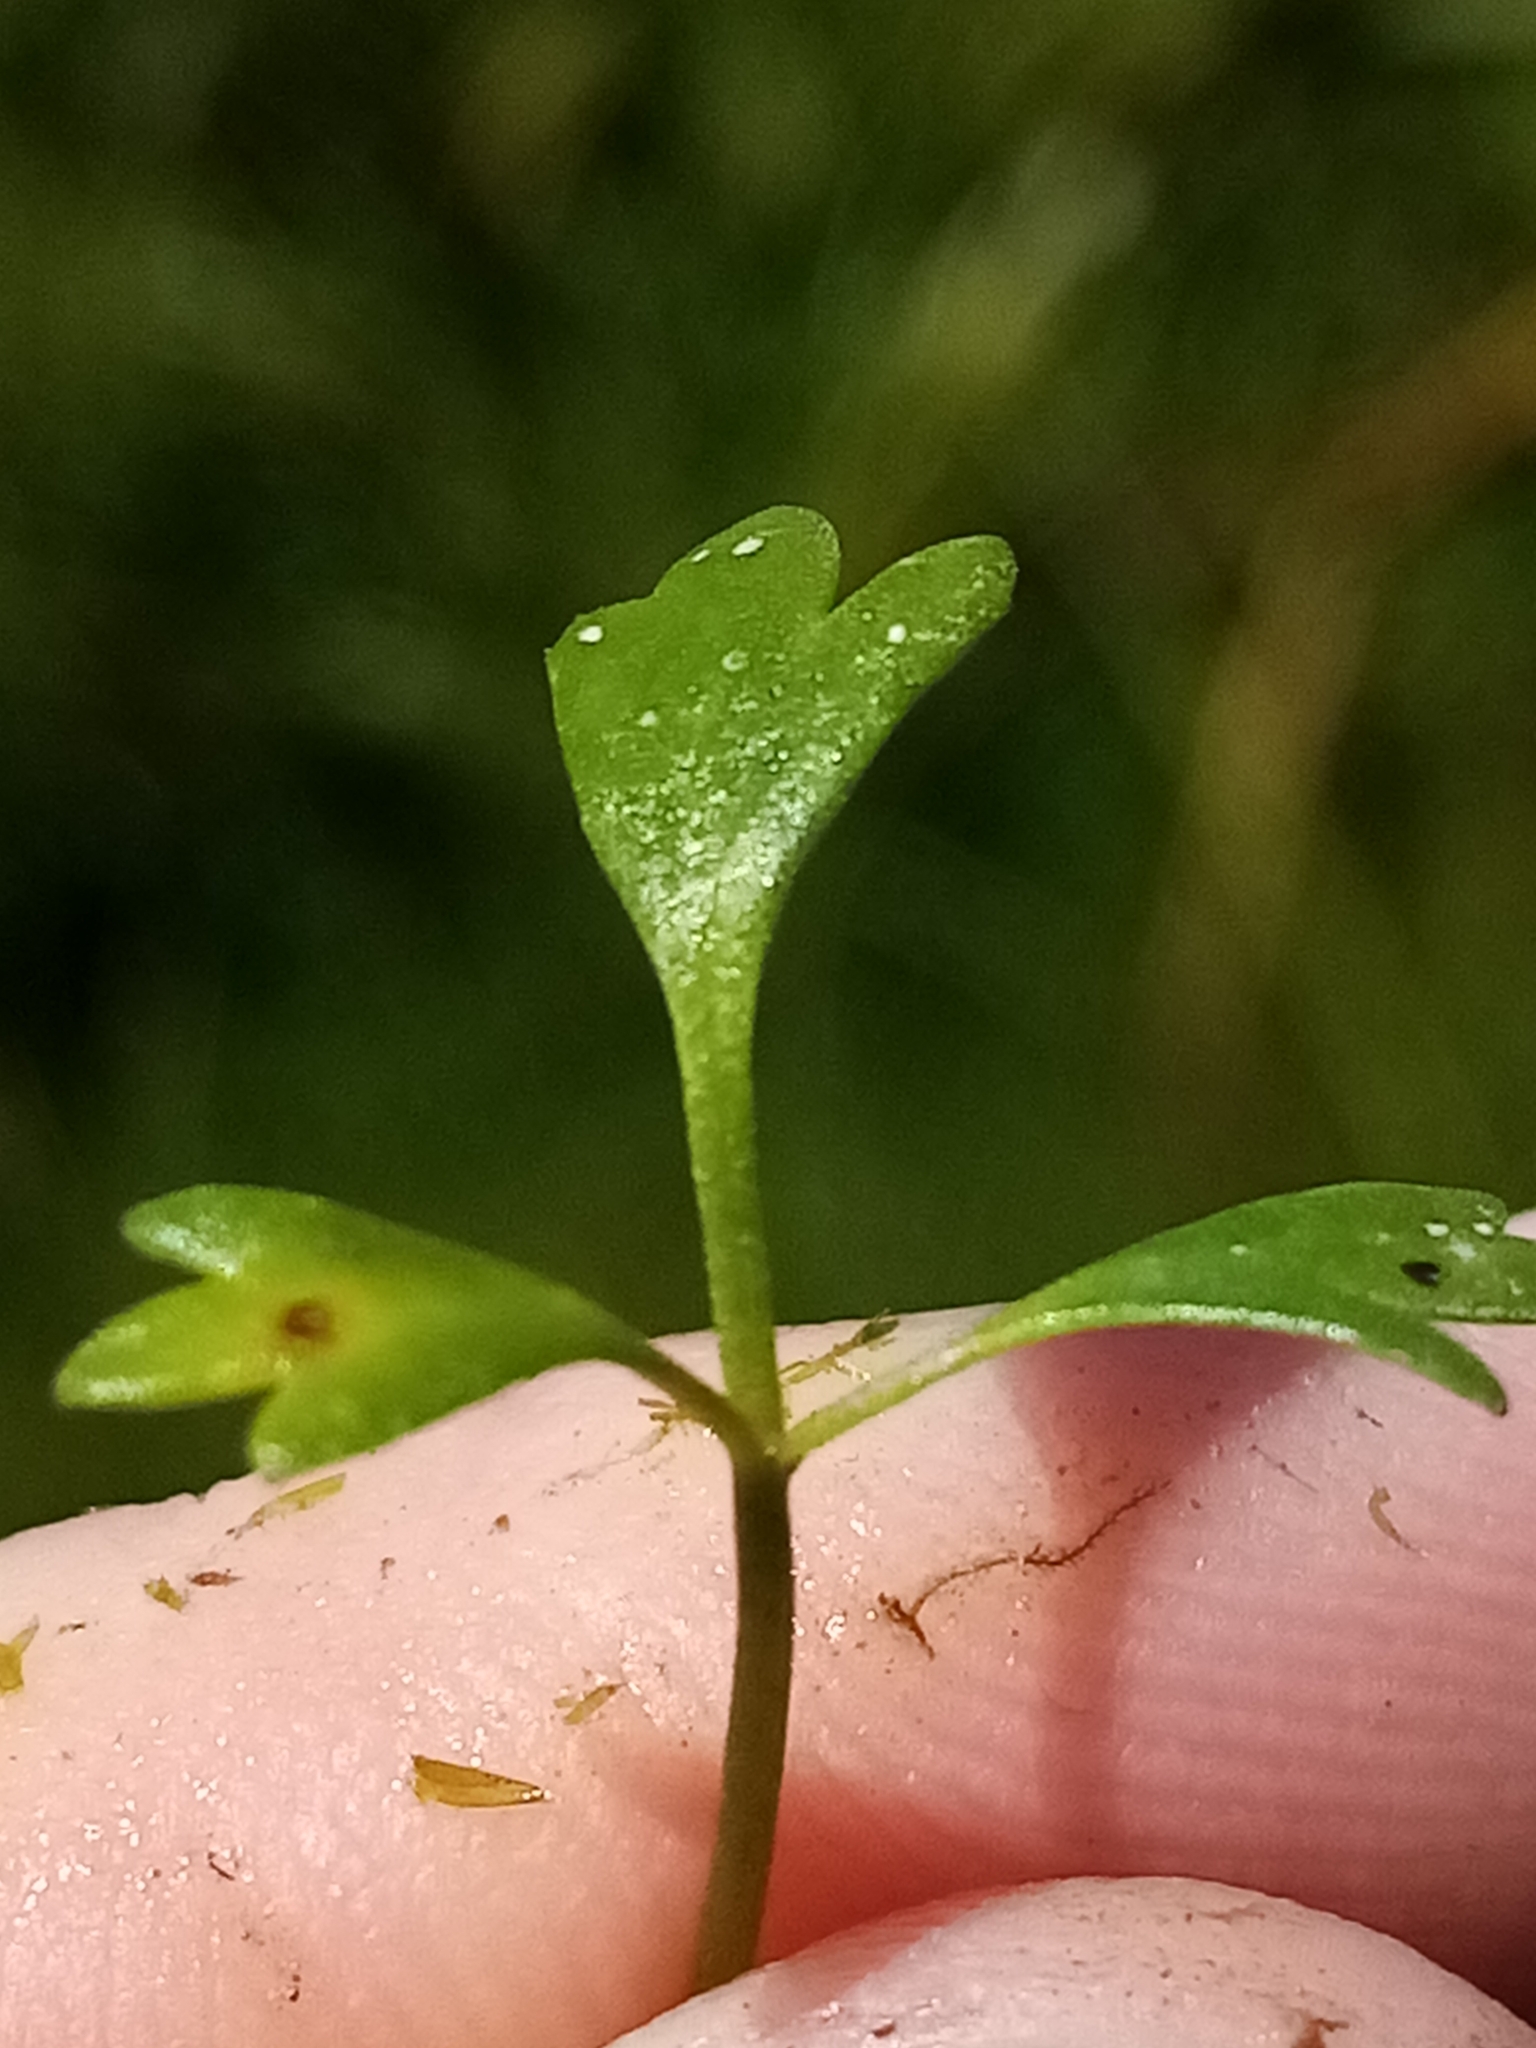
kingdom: Plantae
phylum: Tracheophyta
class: Magnoliopsida
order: Ranunculales
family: Ranunculaceae
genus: Ranunculus
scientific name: Ranunculus glabrifolius
